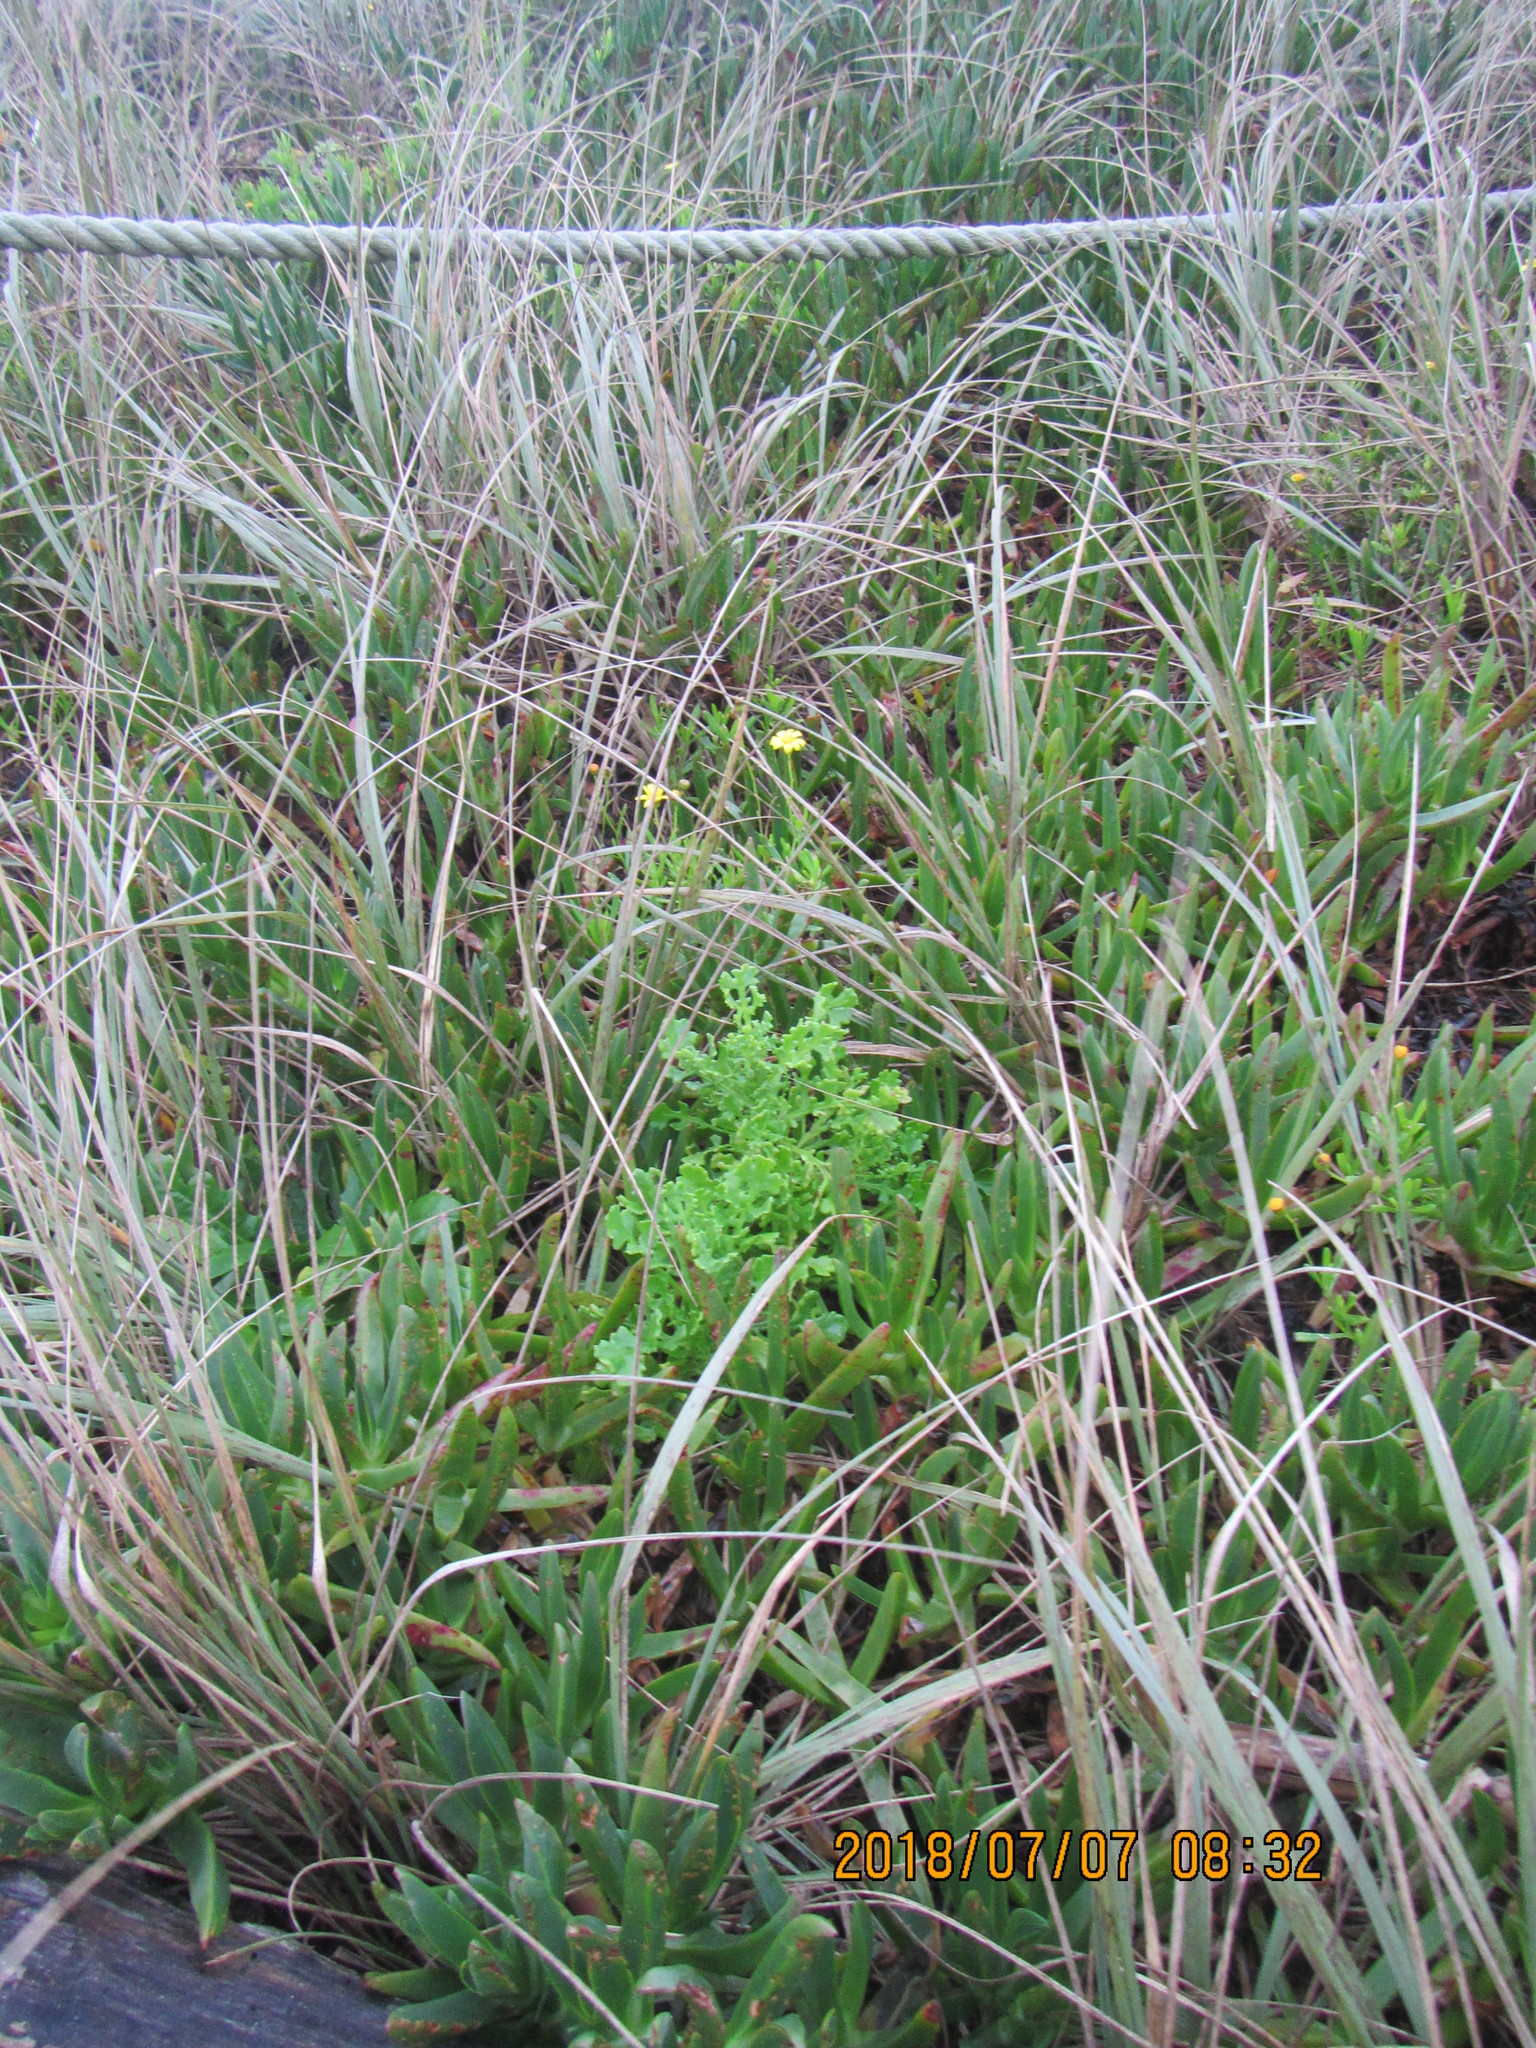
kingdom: Plantae
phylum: Tracheophyta
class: Magnoliopsida
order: Asterales
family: Asteraceae
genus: Senecio
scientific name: Senecio elegans
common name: Purple groundsel
